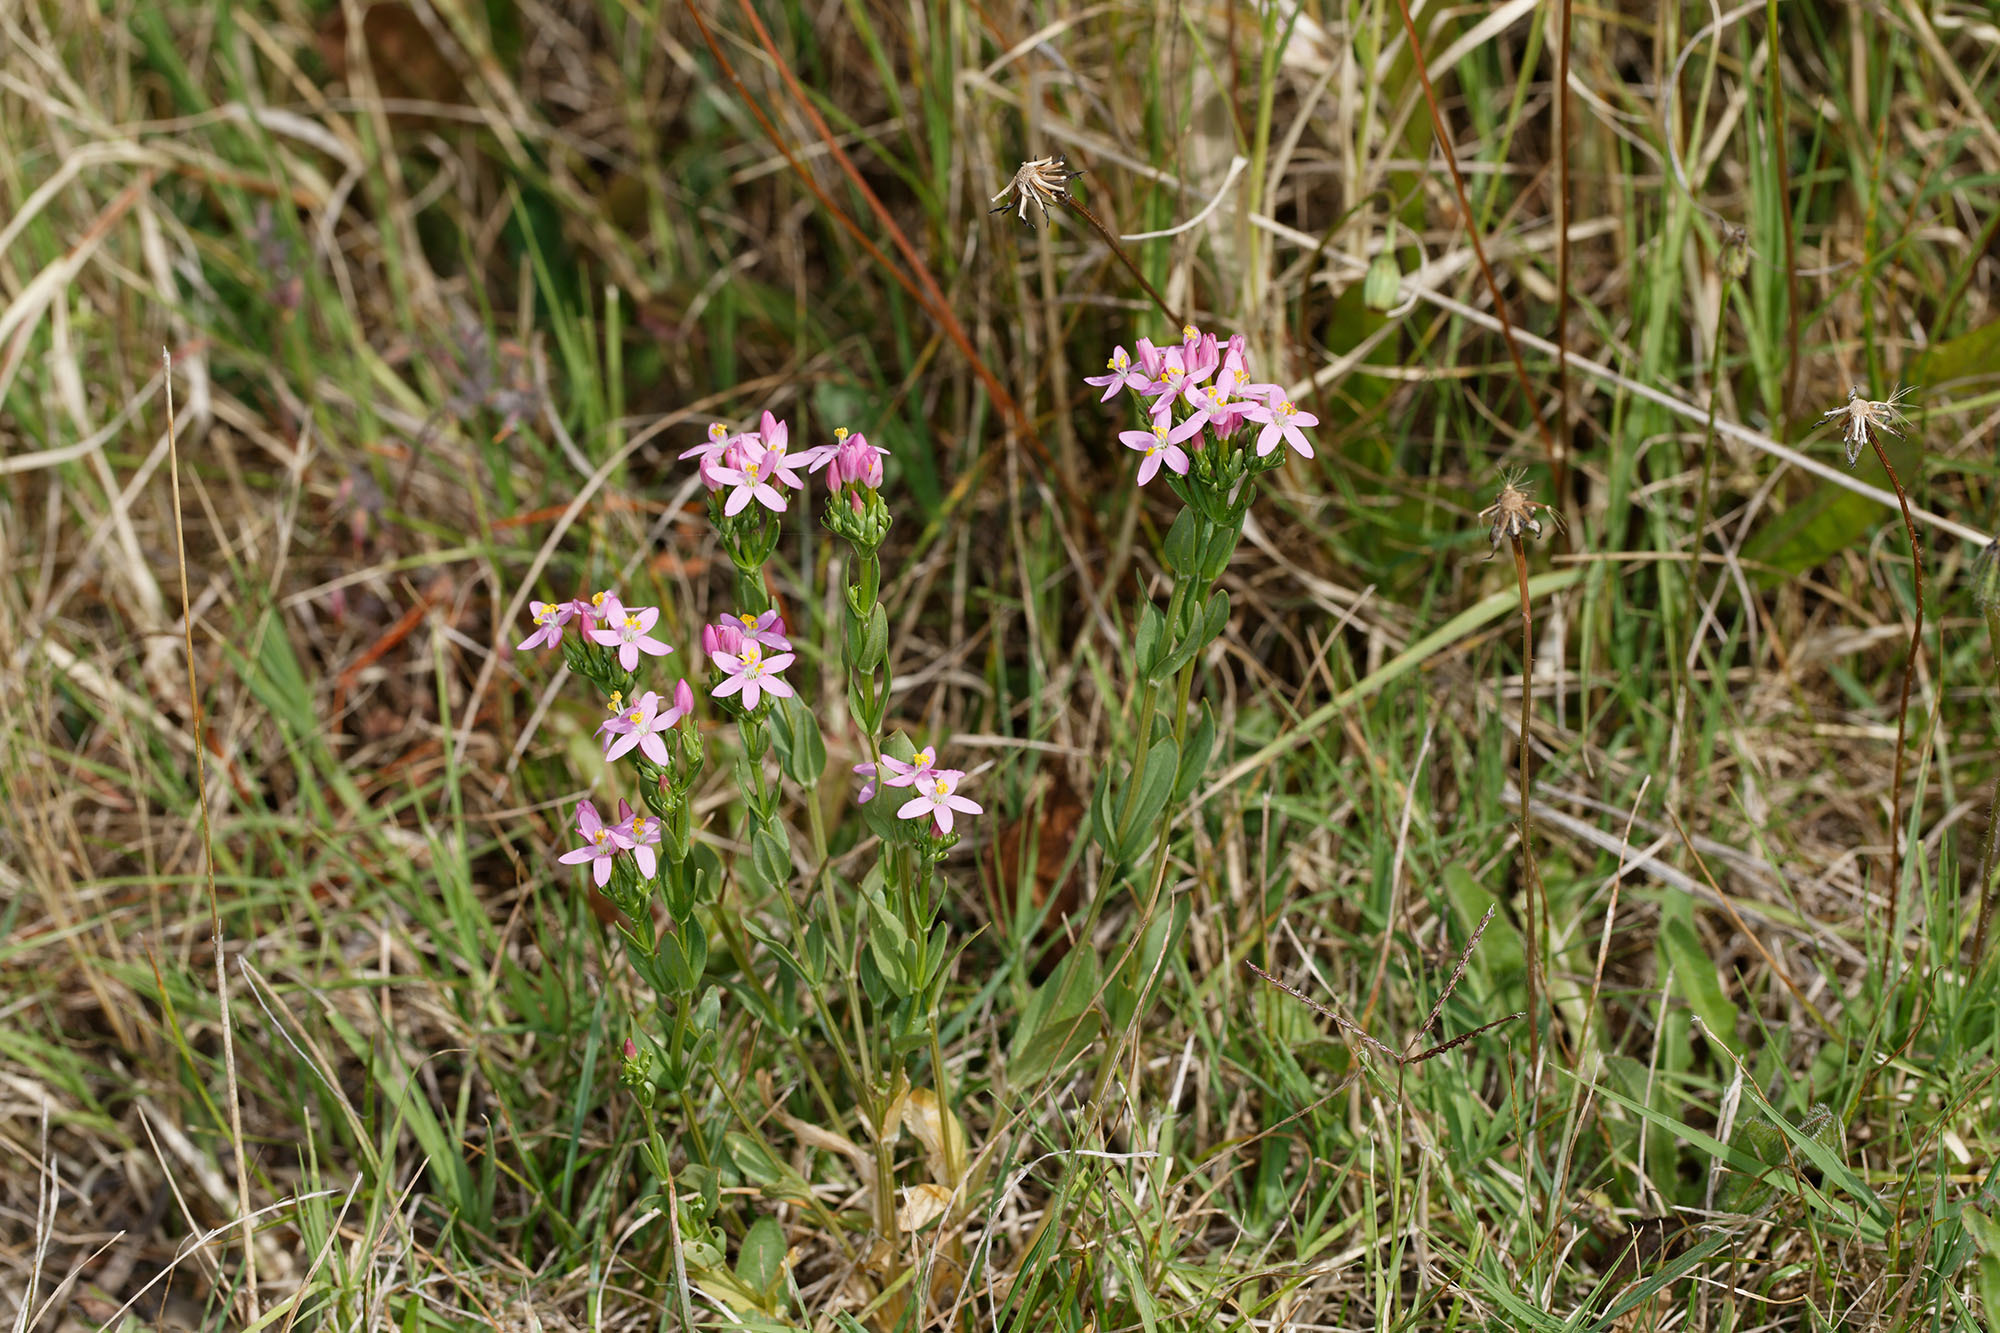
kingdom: Plantae
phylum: Tracheophyta
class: Magnoliopsida
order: Gentianales
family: Gentianaceae
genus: Centaurium
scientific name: Centaurium erythraea
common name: Common centaury
